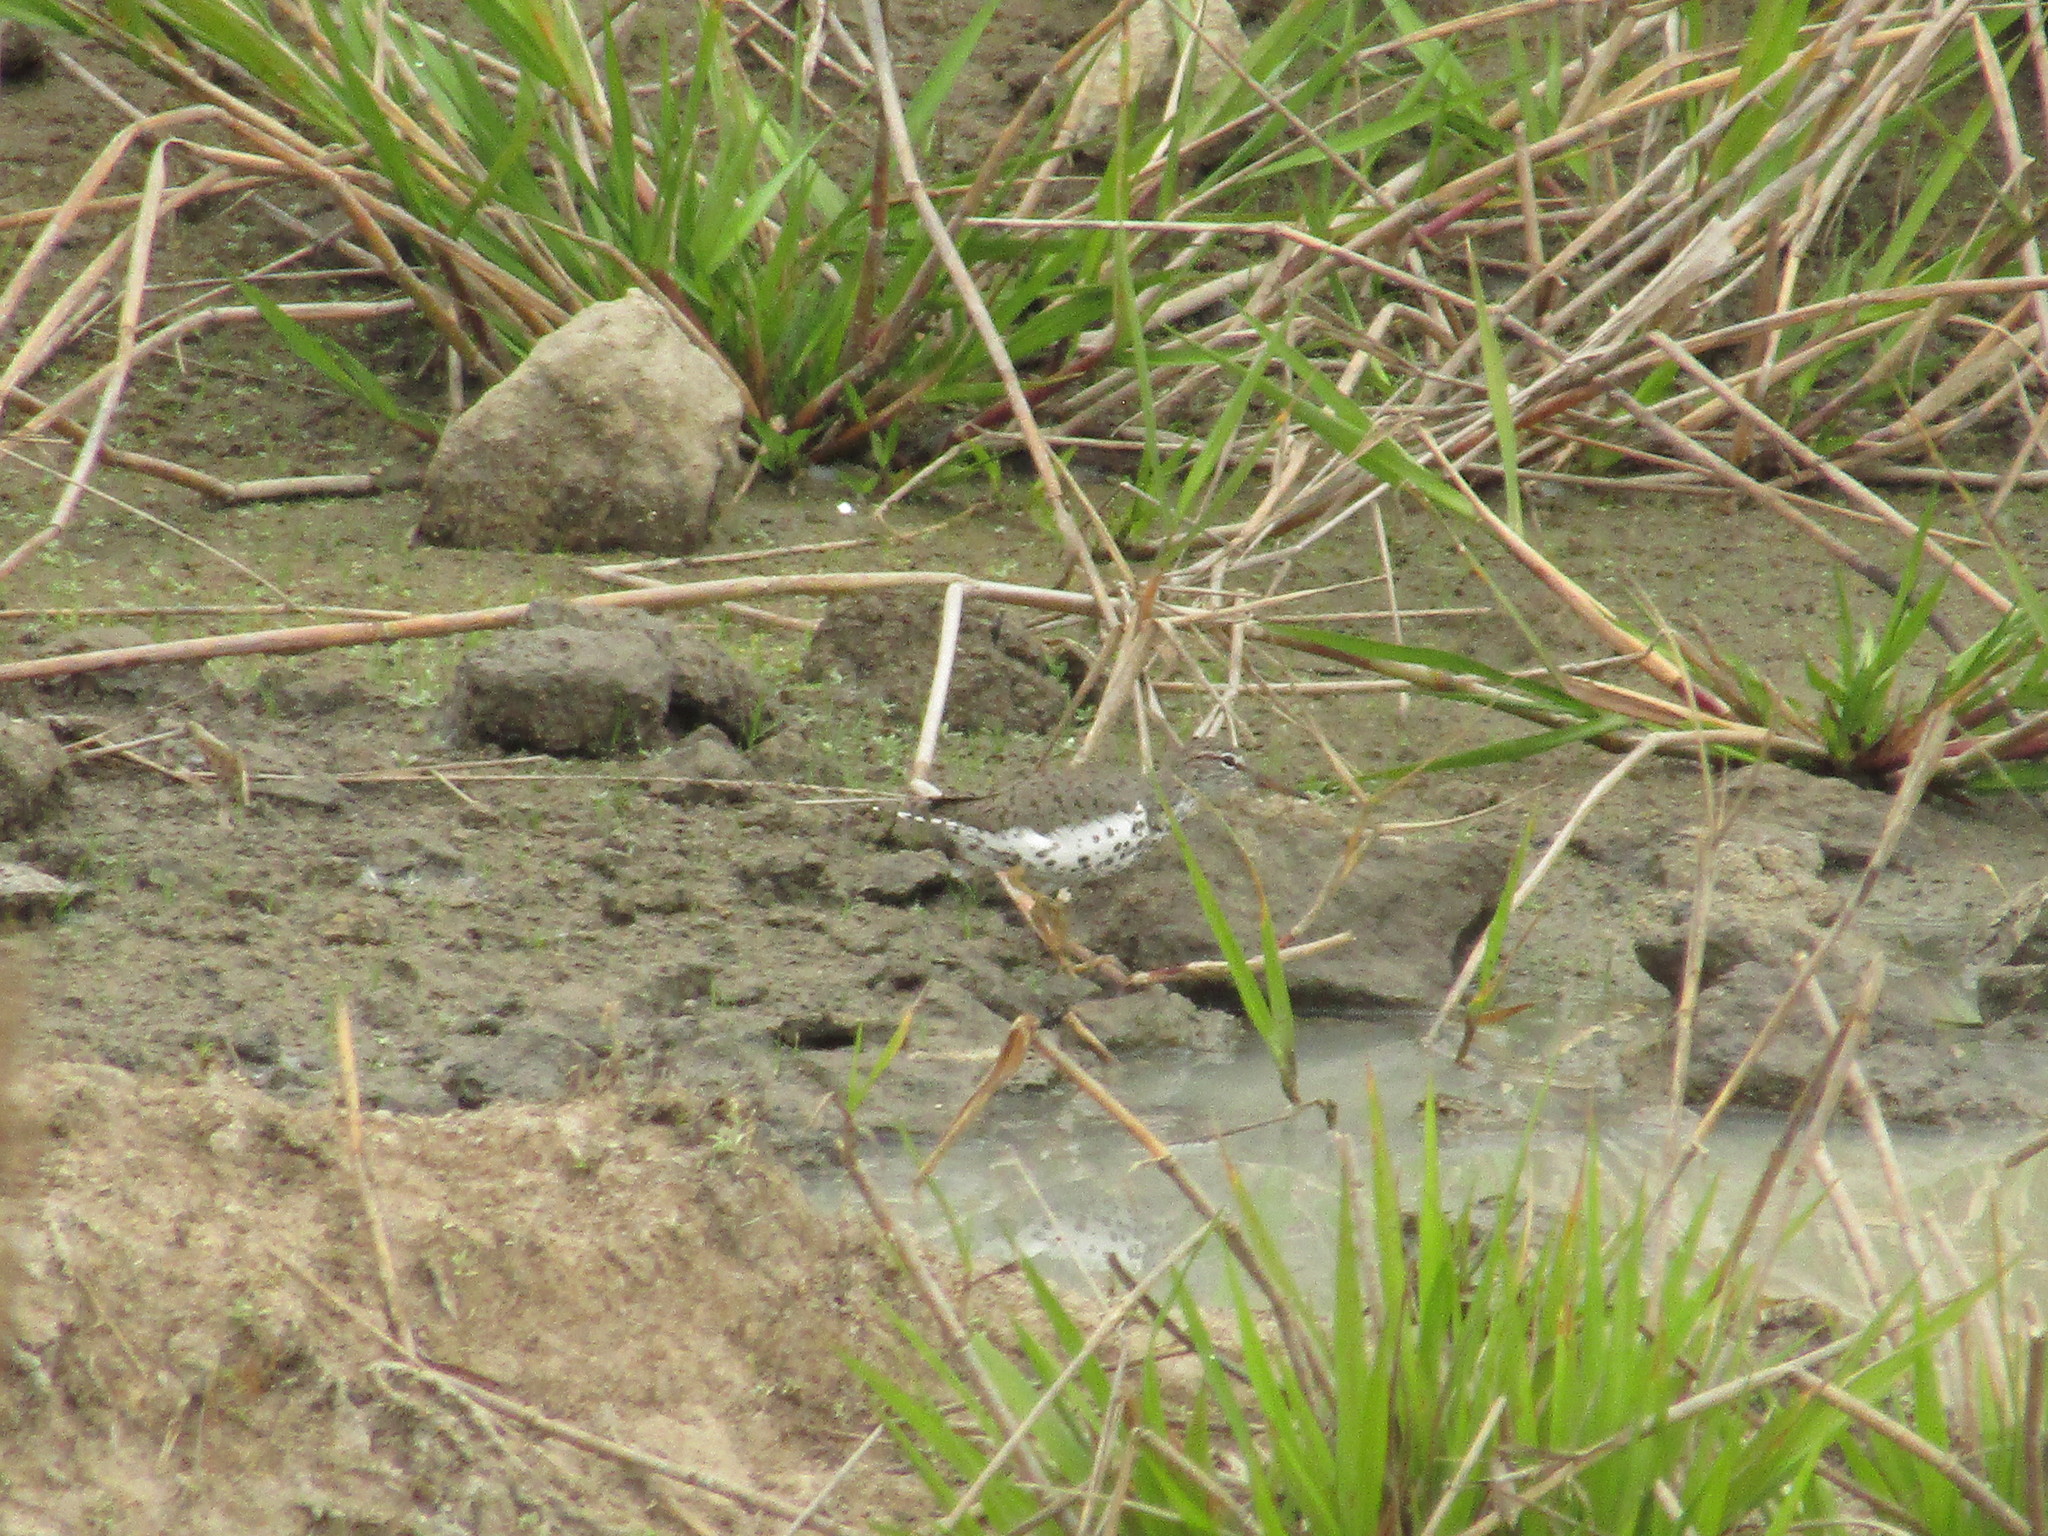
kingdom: Animalia
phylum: Chordata
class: Aves
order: Charadriiformes
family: Scolopacidae
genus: Actitis
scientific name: Actitis macularius
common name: Spotted sandpiper
